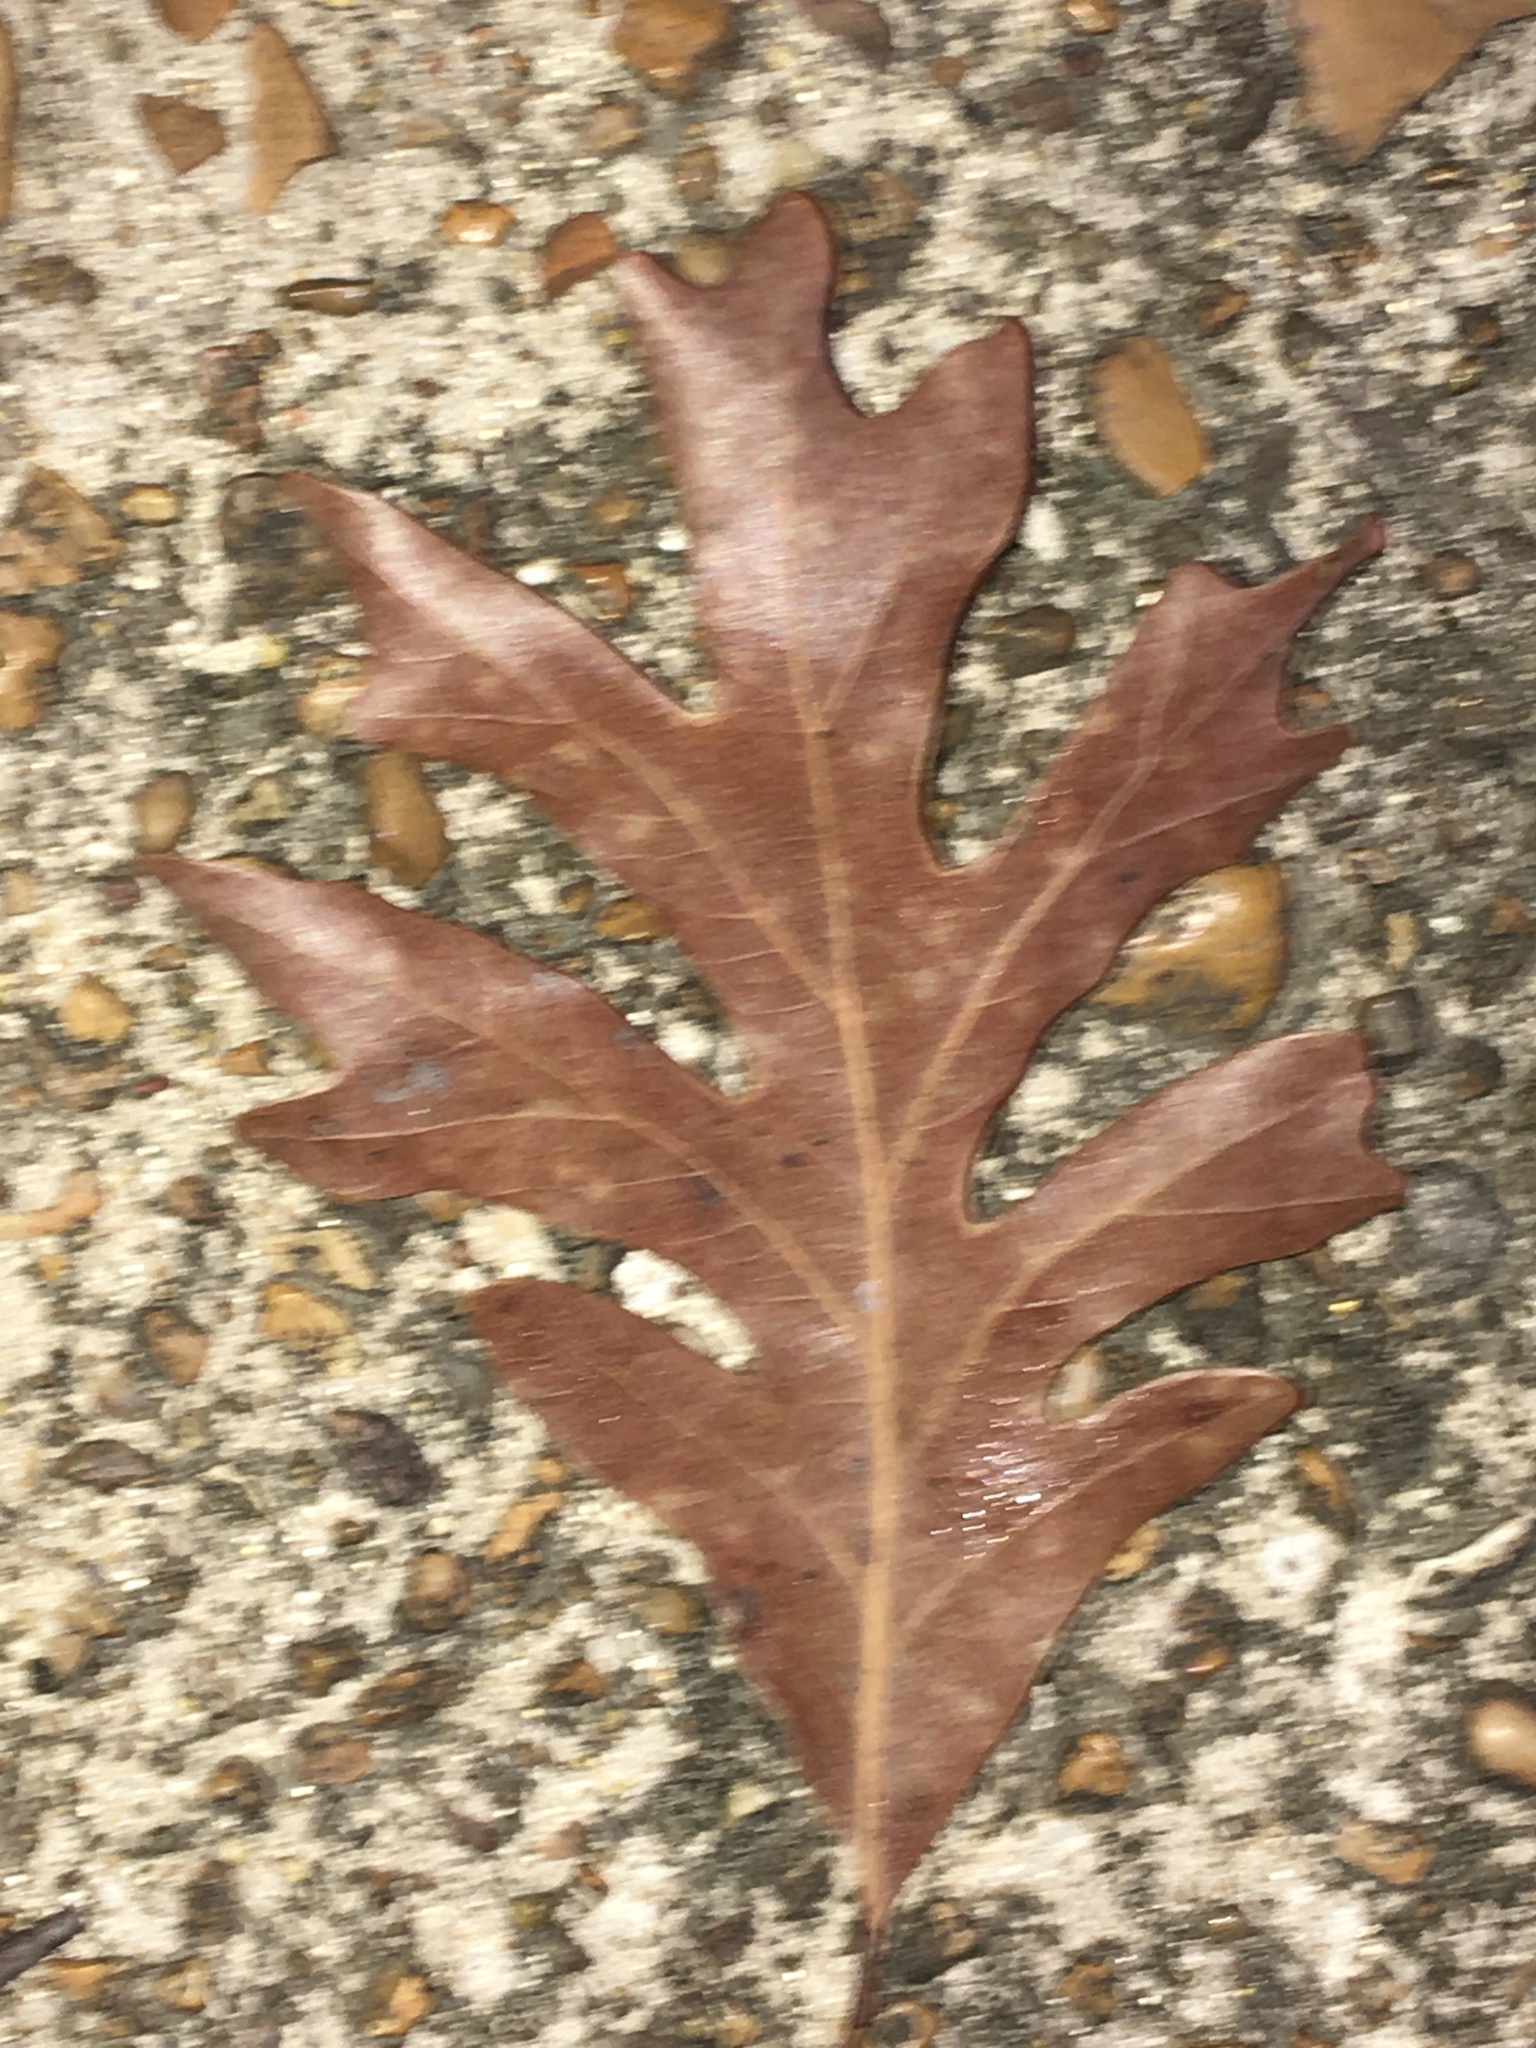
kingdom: Plantae
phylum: Tracheophyta
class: Magnoliopsida
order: Fagales
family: Fagaceae
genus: Quercus
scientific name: Quercus alba
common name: White oak
